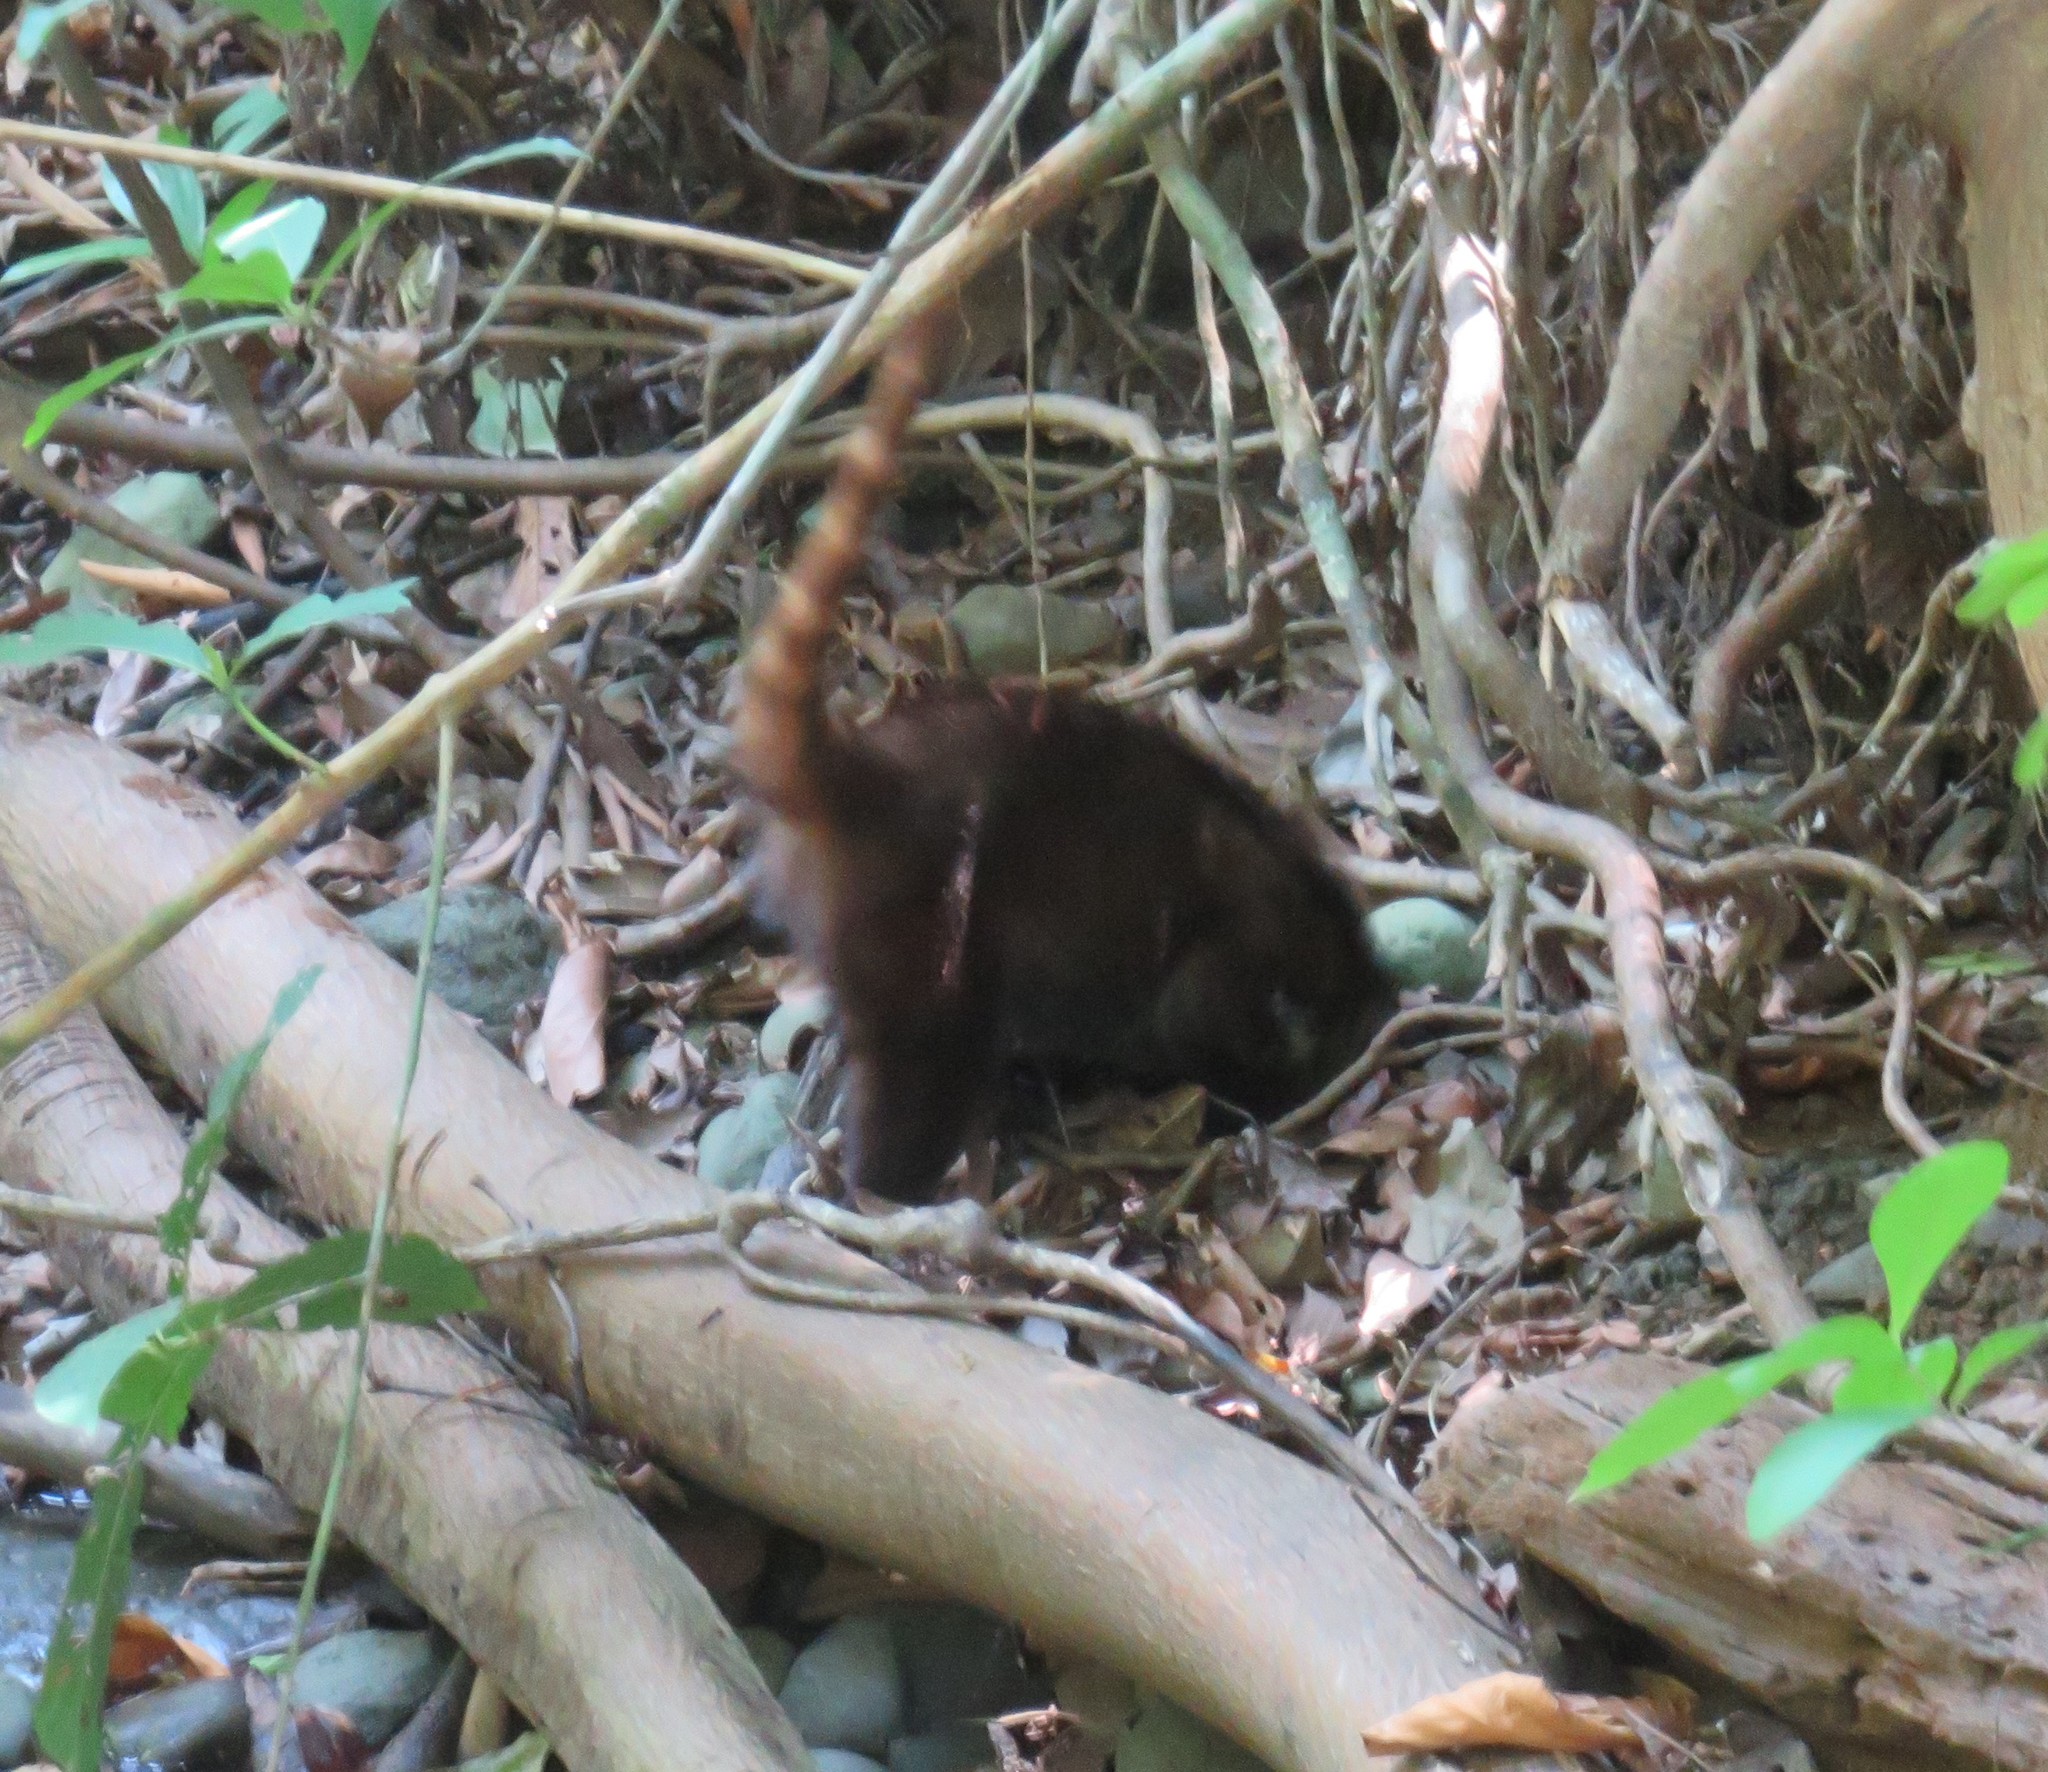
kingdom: Animalia
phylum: Chordata
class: Mammalia
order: Carnivora
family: Procyonidae
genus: Nasua
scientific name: Nasua narica
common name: White-nosed coati
